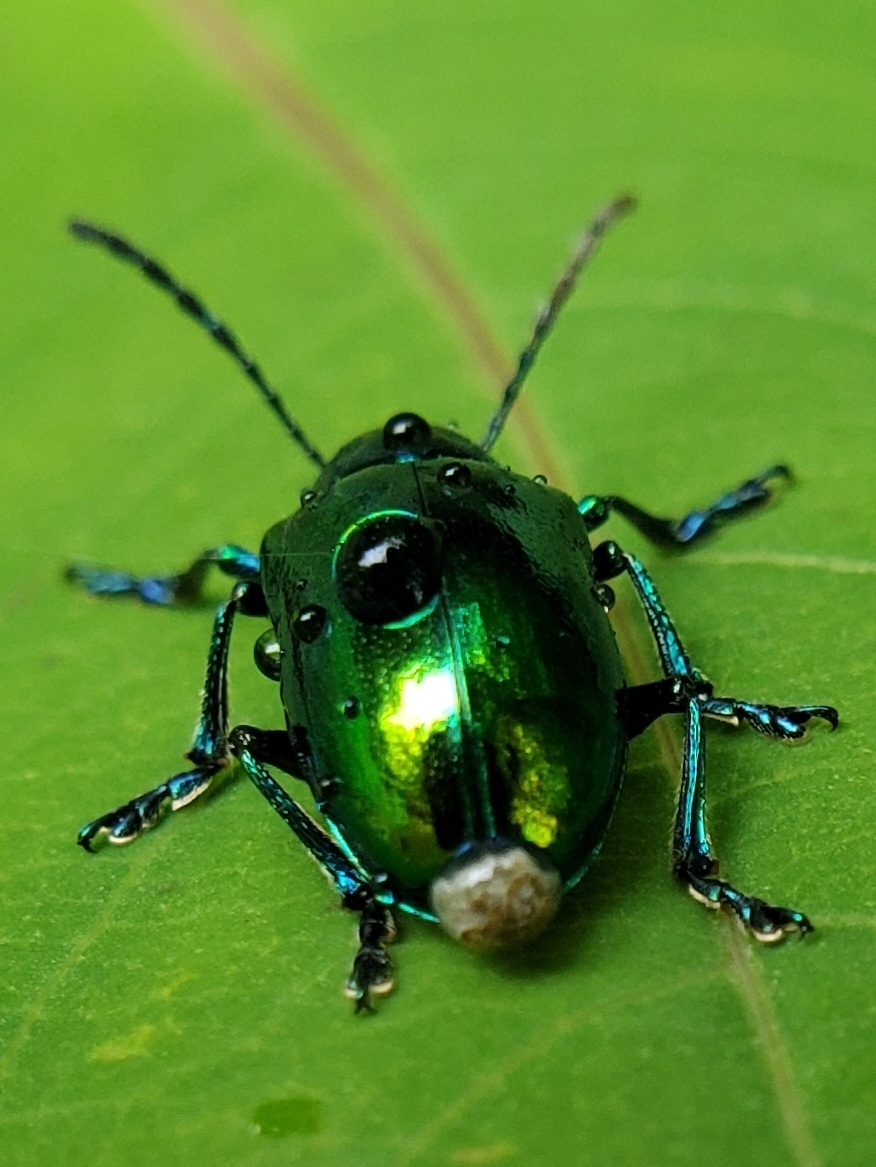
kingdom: Animalia
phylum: Arthropoda
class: Insecta
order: Coleoptera
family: Chrysomelidae
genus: Chrysochus
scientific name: Chrysochus auratus
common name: Dogbane leaf beetle
